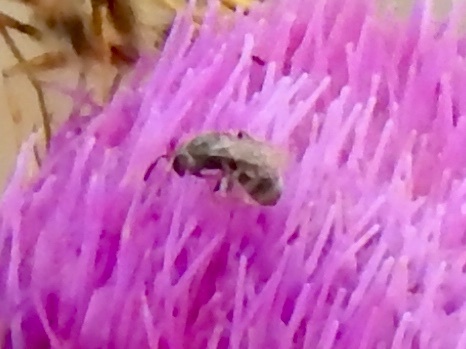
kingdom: Animalia
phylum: Arthropoda
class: Insecta
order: Hymenoptera
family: Halictidae
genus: Dialictus
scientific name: Dialictus
